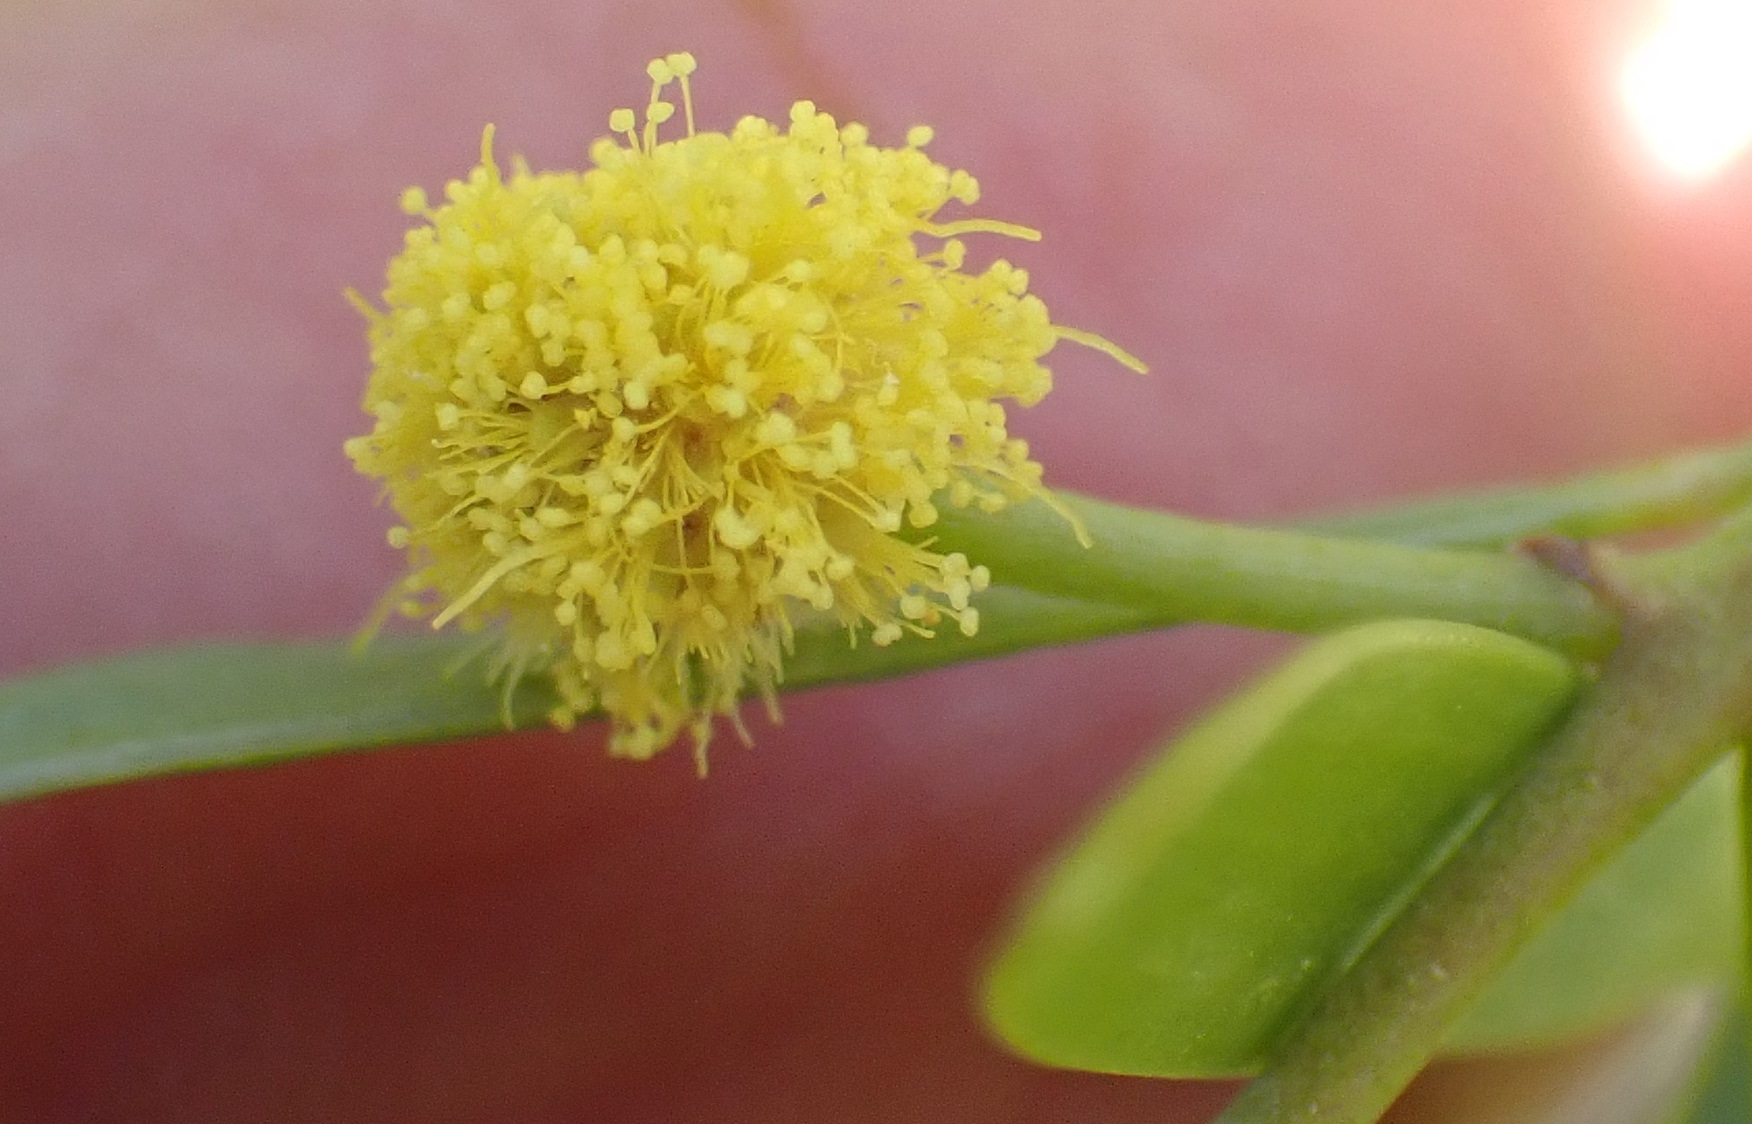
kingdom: Plantae
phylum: Tracheophyta
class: Magnoliopsida
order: Fabales
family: Fabaceae
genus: Acacia
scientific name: Acacia cyclops
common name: Coastal wattle
